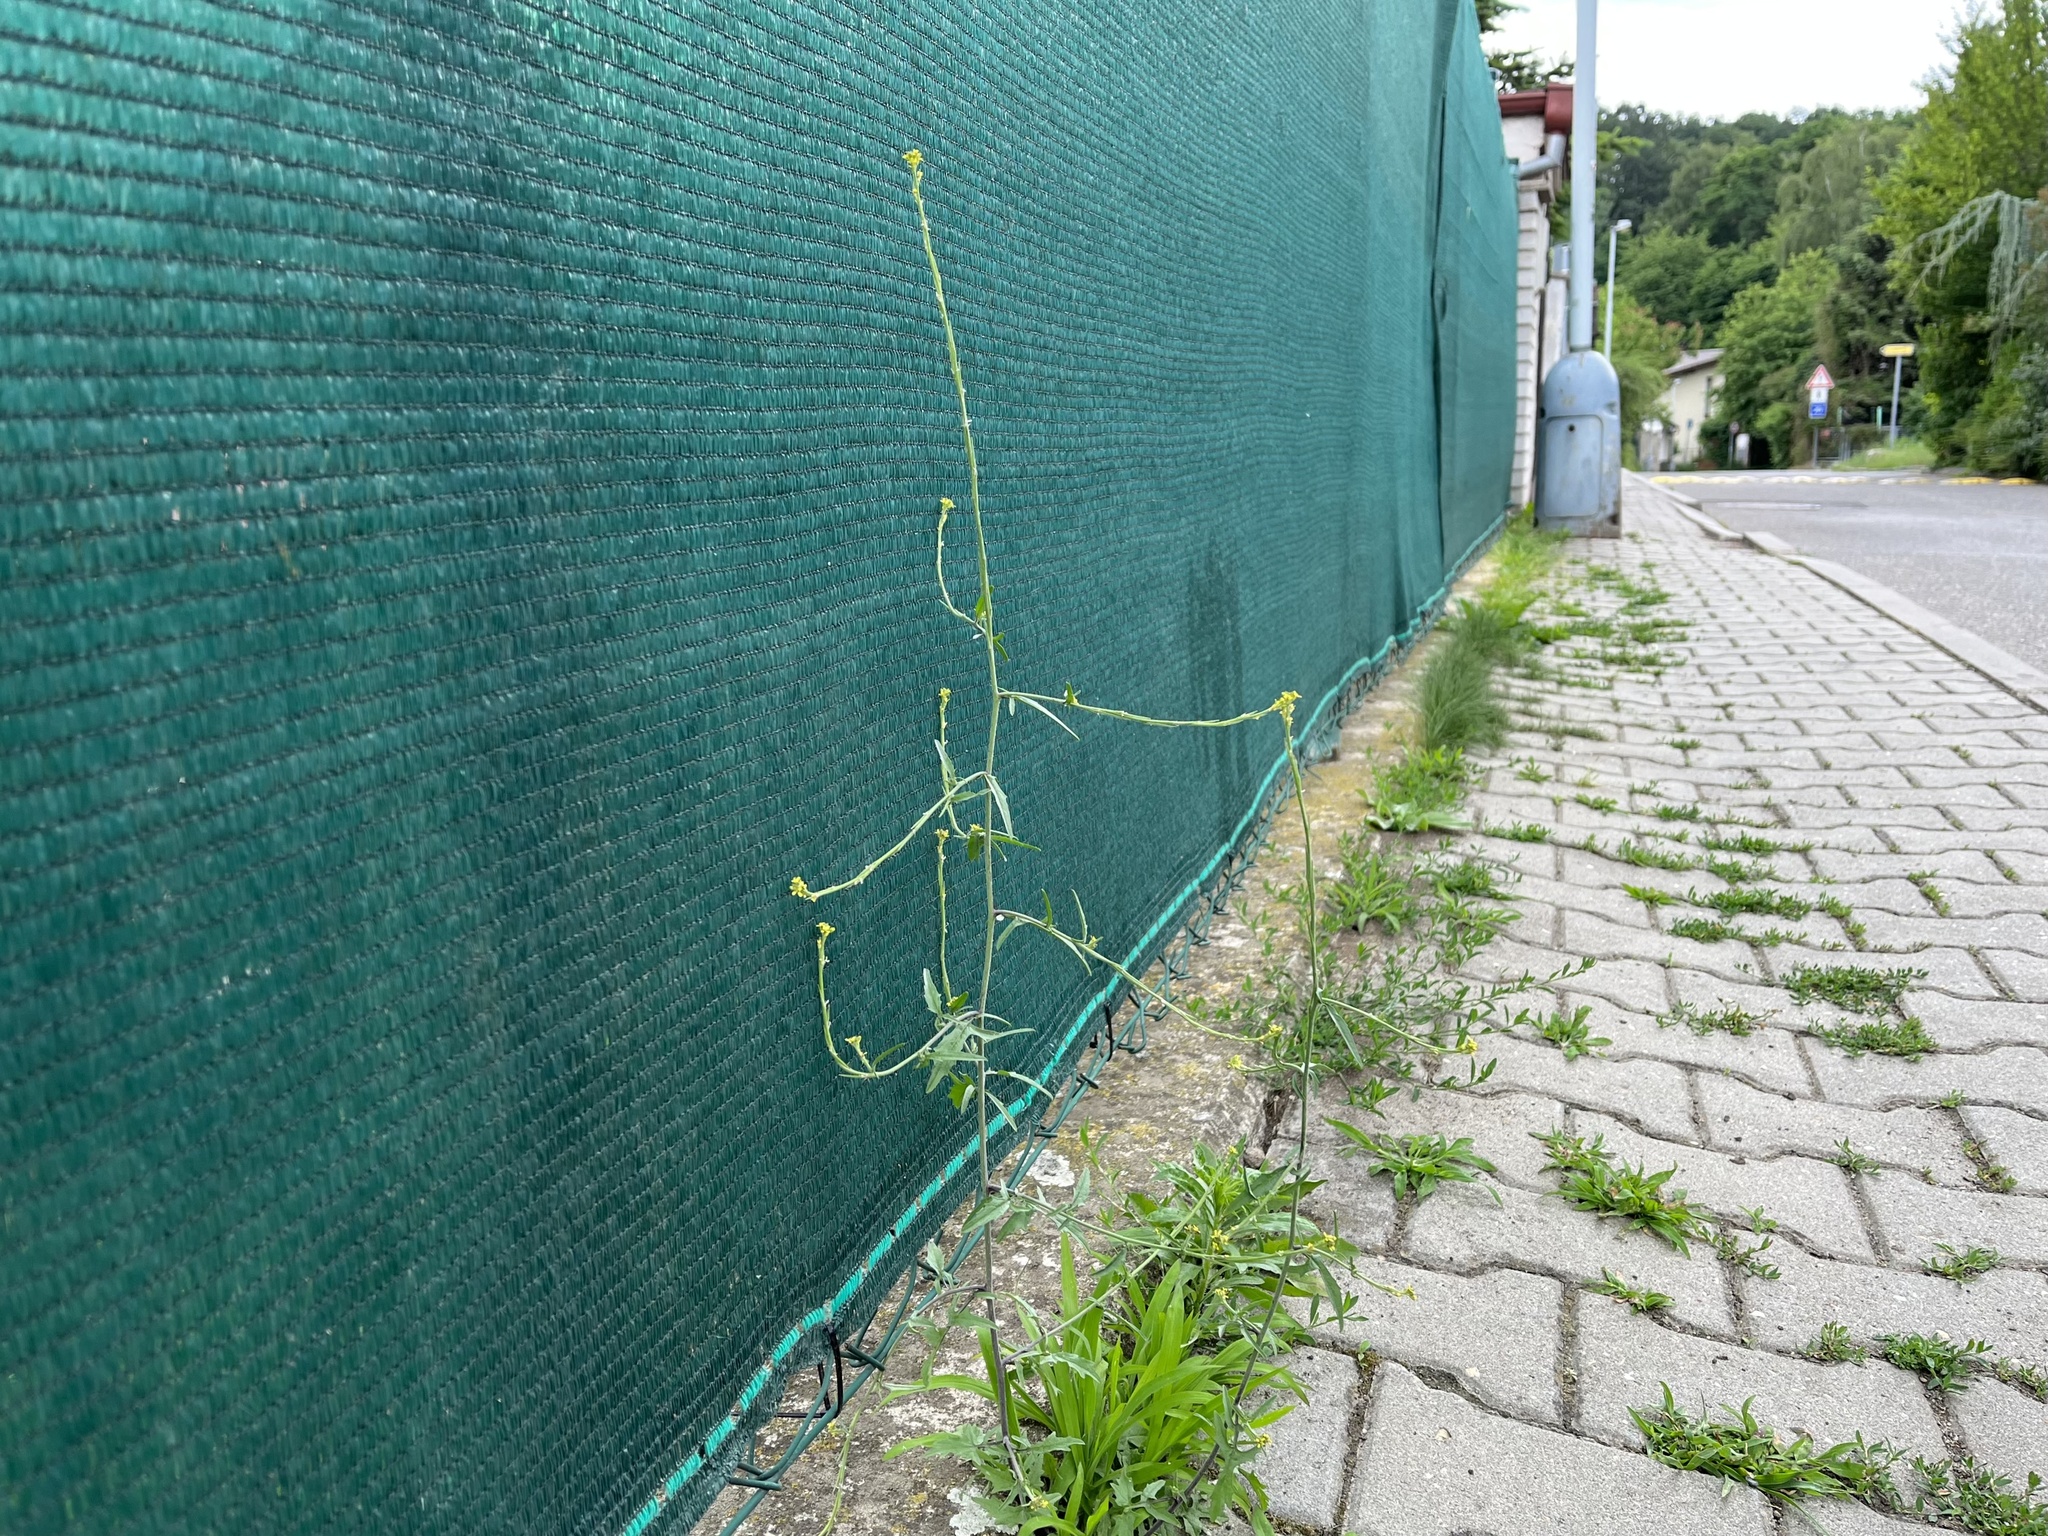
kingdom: Plantae
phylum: Tracheophyta
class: Magnoliopsida
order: Brassicales
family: Brassicaceae
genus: Sisymbrium
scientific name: Sisymbrium officinale
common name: Hedge mustard
